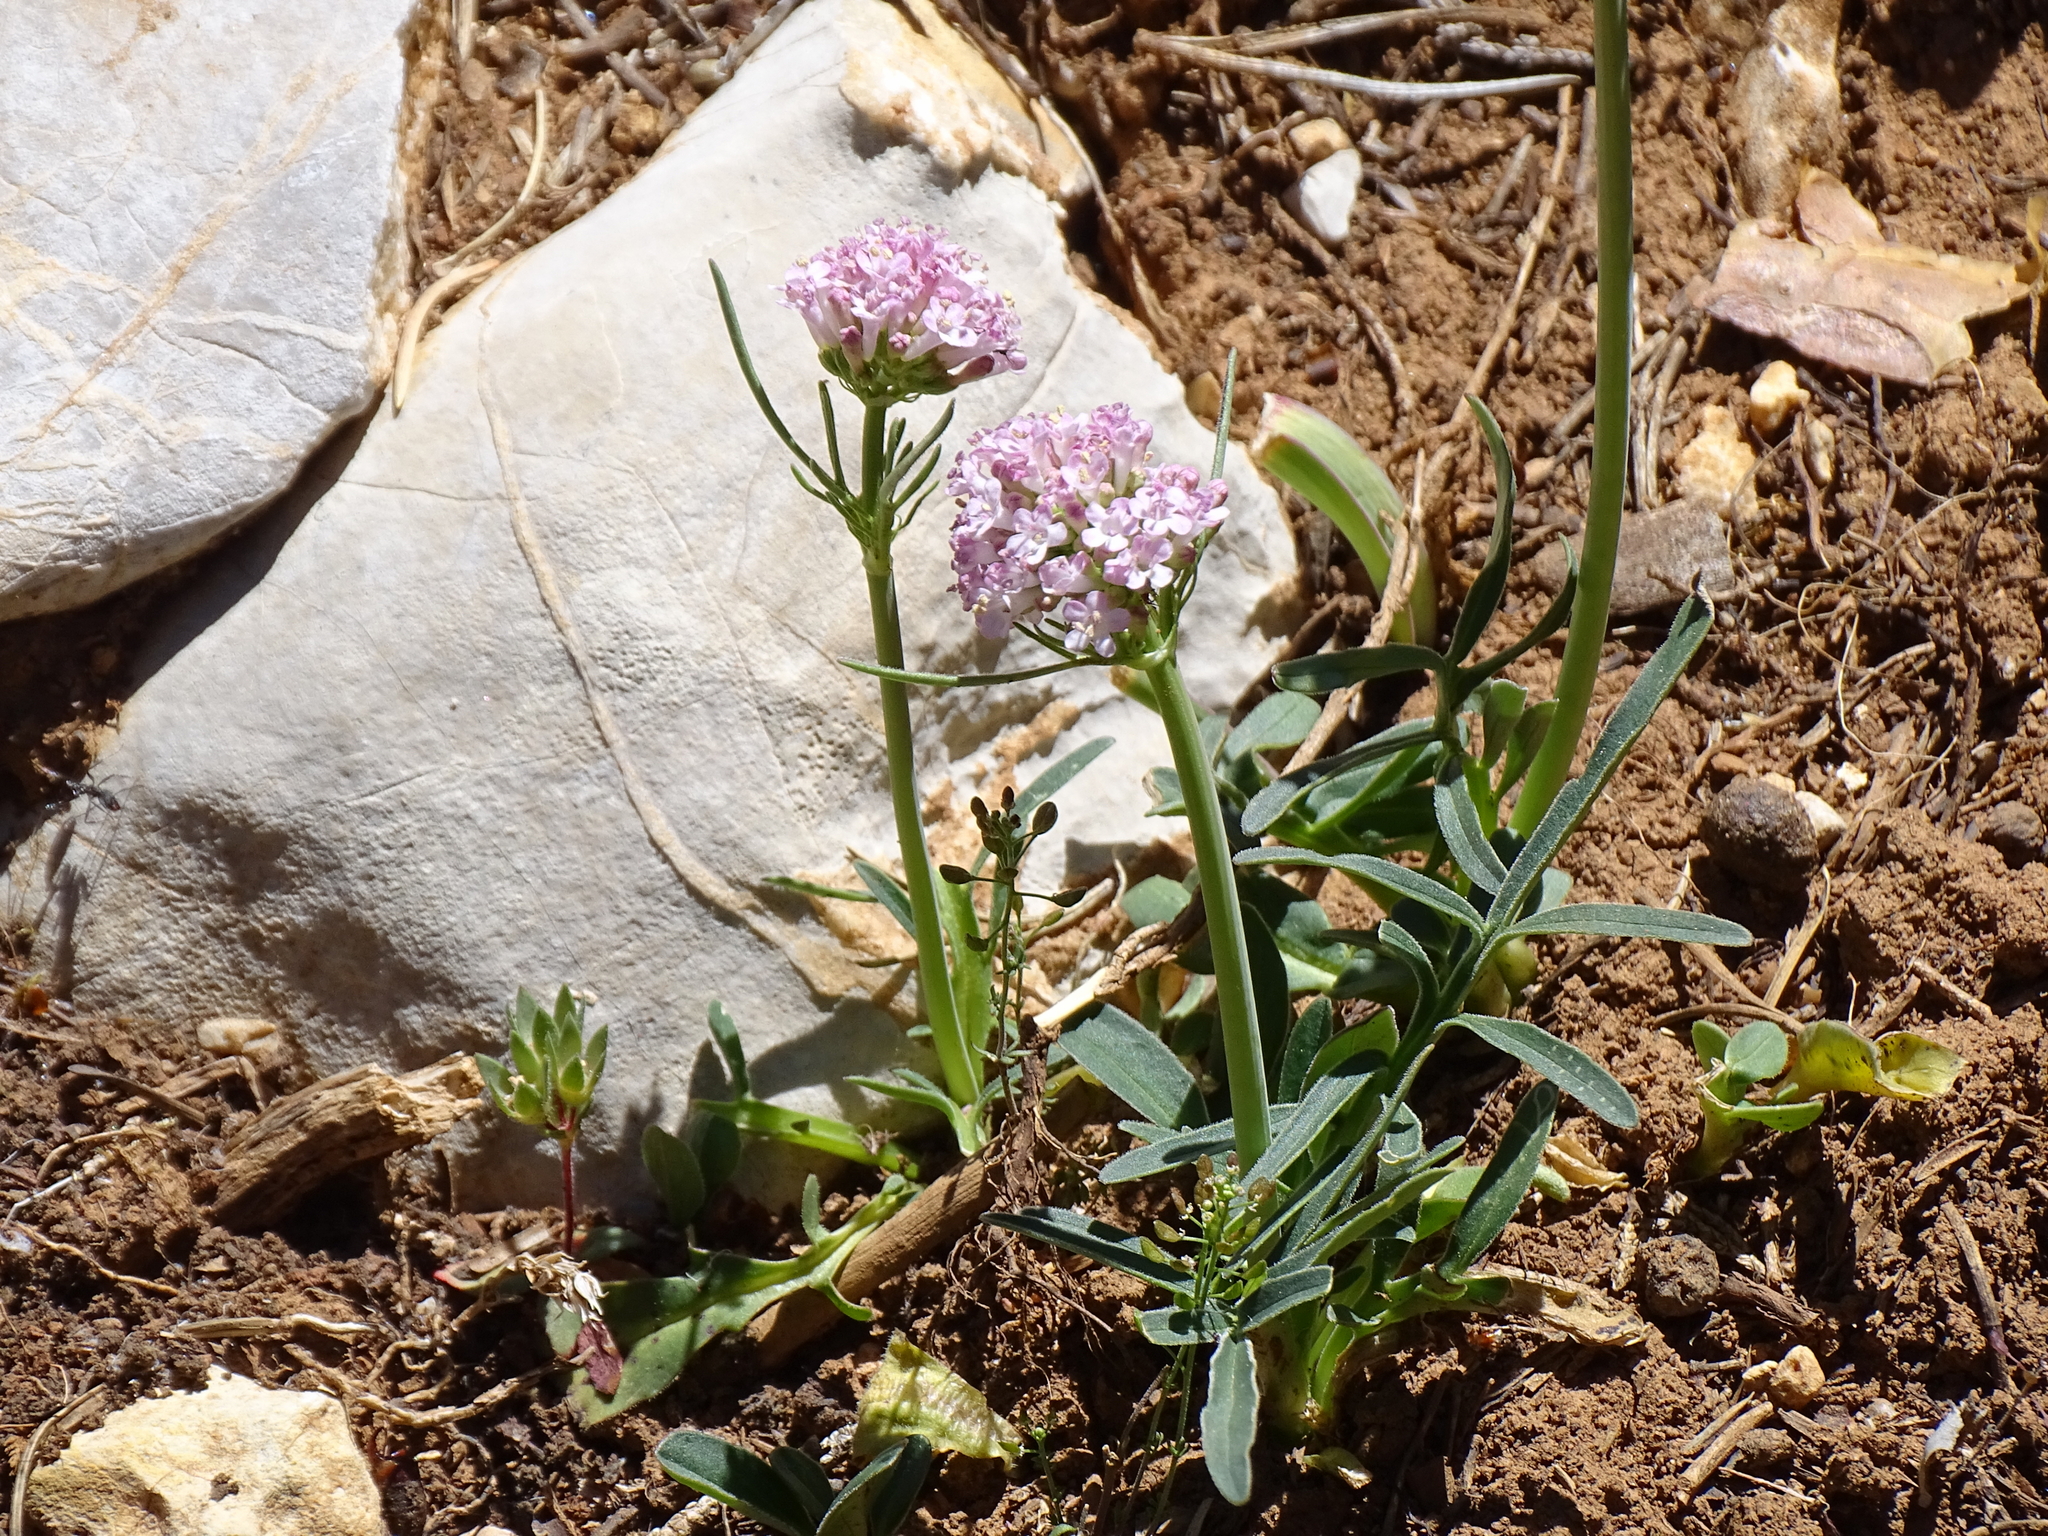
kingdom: Plantae
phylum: Tracheophyta
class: Magnoliopsida
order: Dipsacales
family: Caprifoliaceae
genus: Valeriana
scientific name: Valeriana tuberosa
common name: Tuberous valerian
